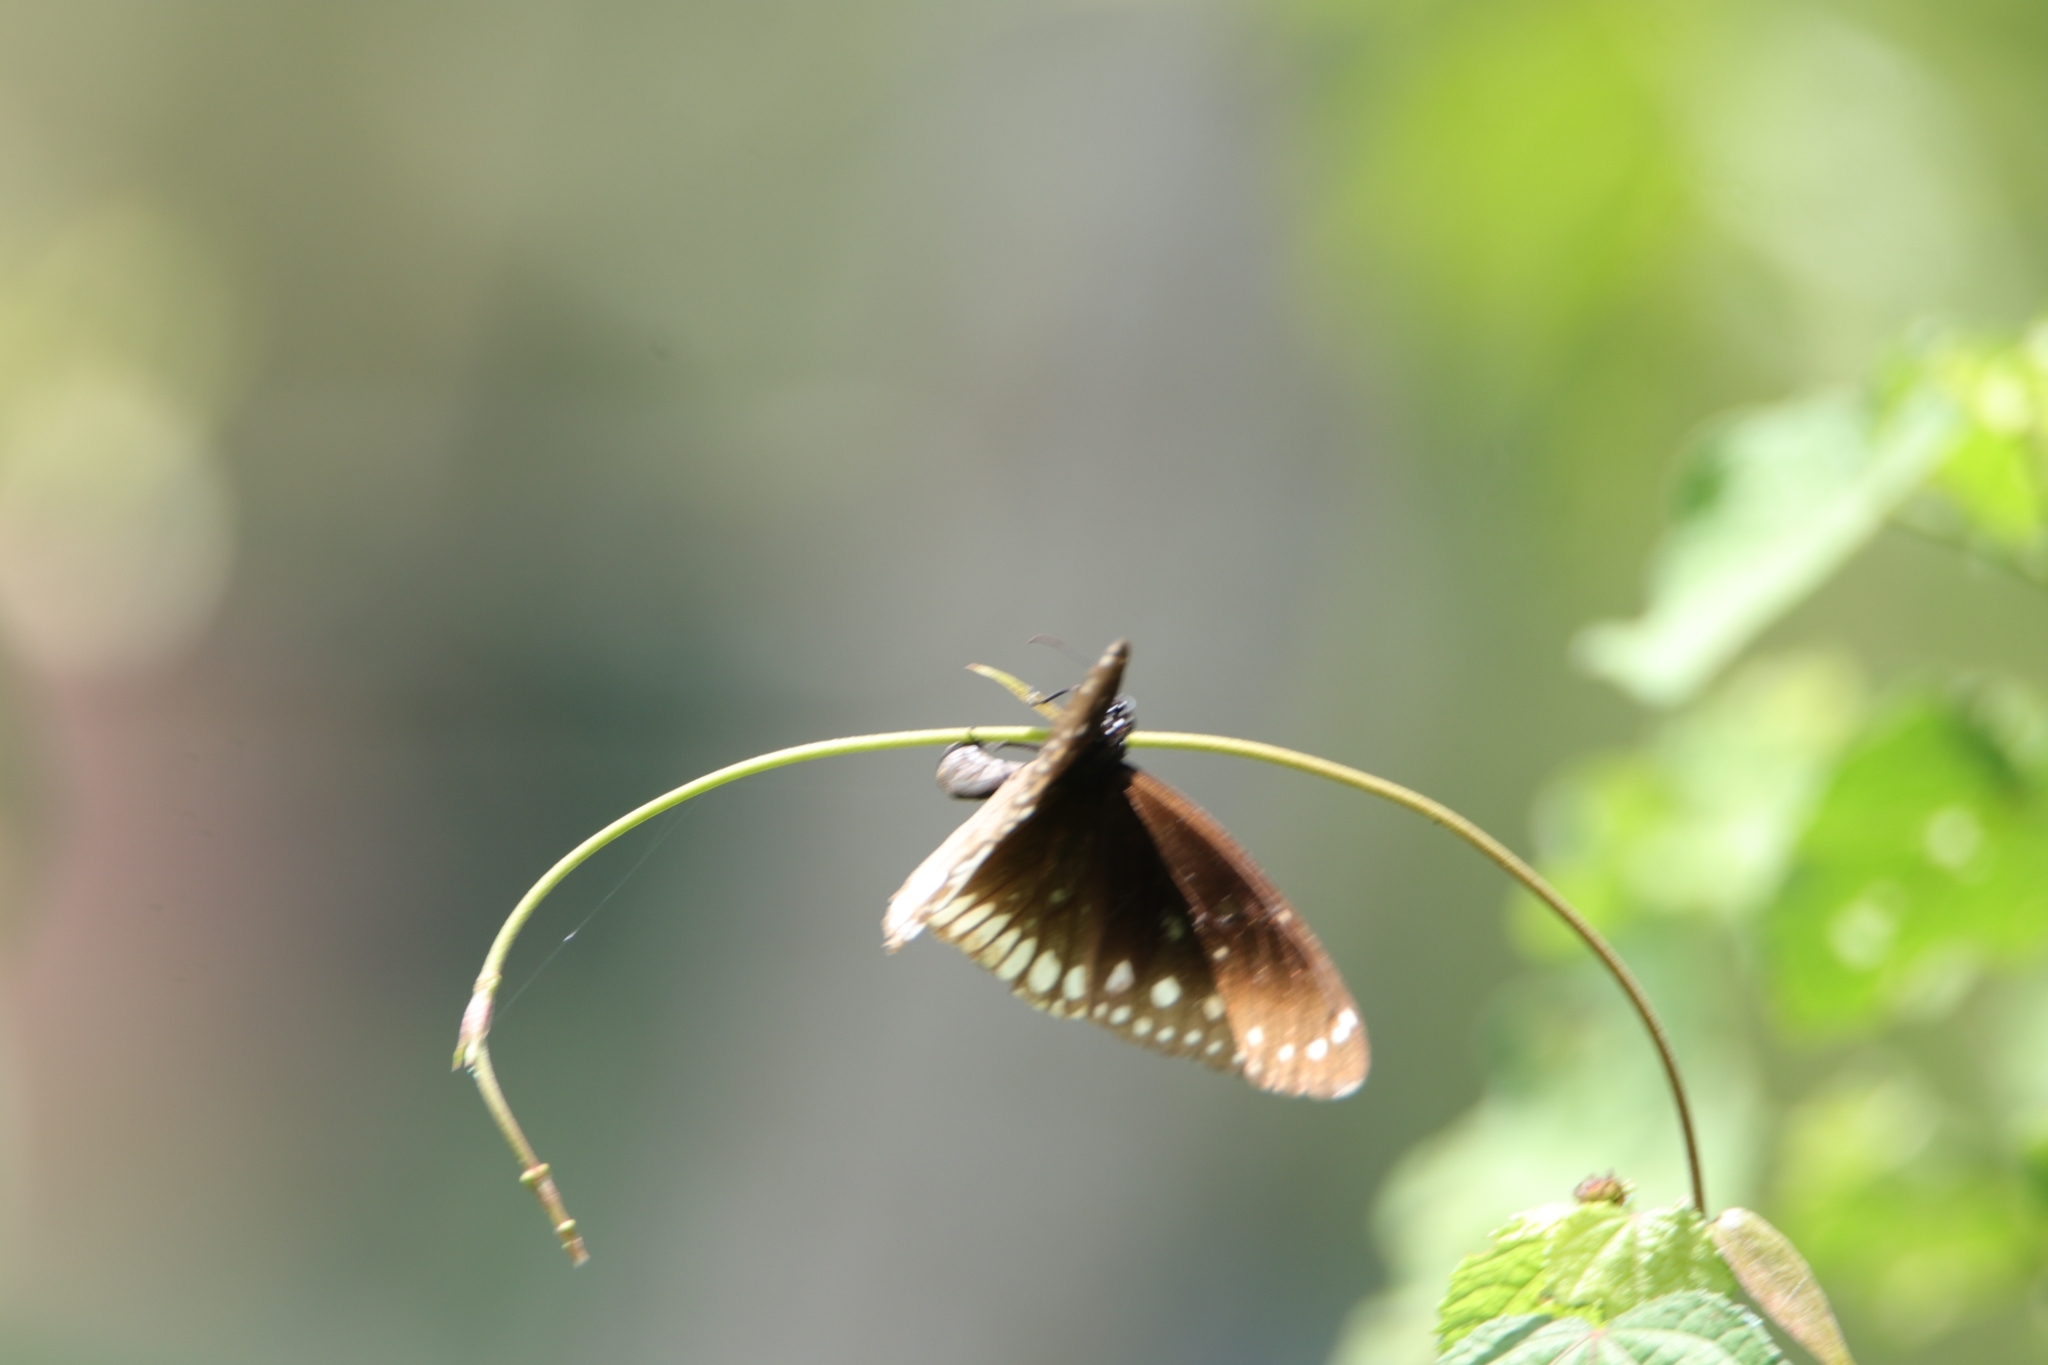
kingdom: Animalia
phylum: Arthropoda
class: Insecta
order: Lepidoptera
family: Nymphalidae
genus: Euploea
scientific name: Euploea core
